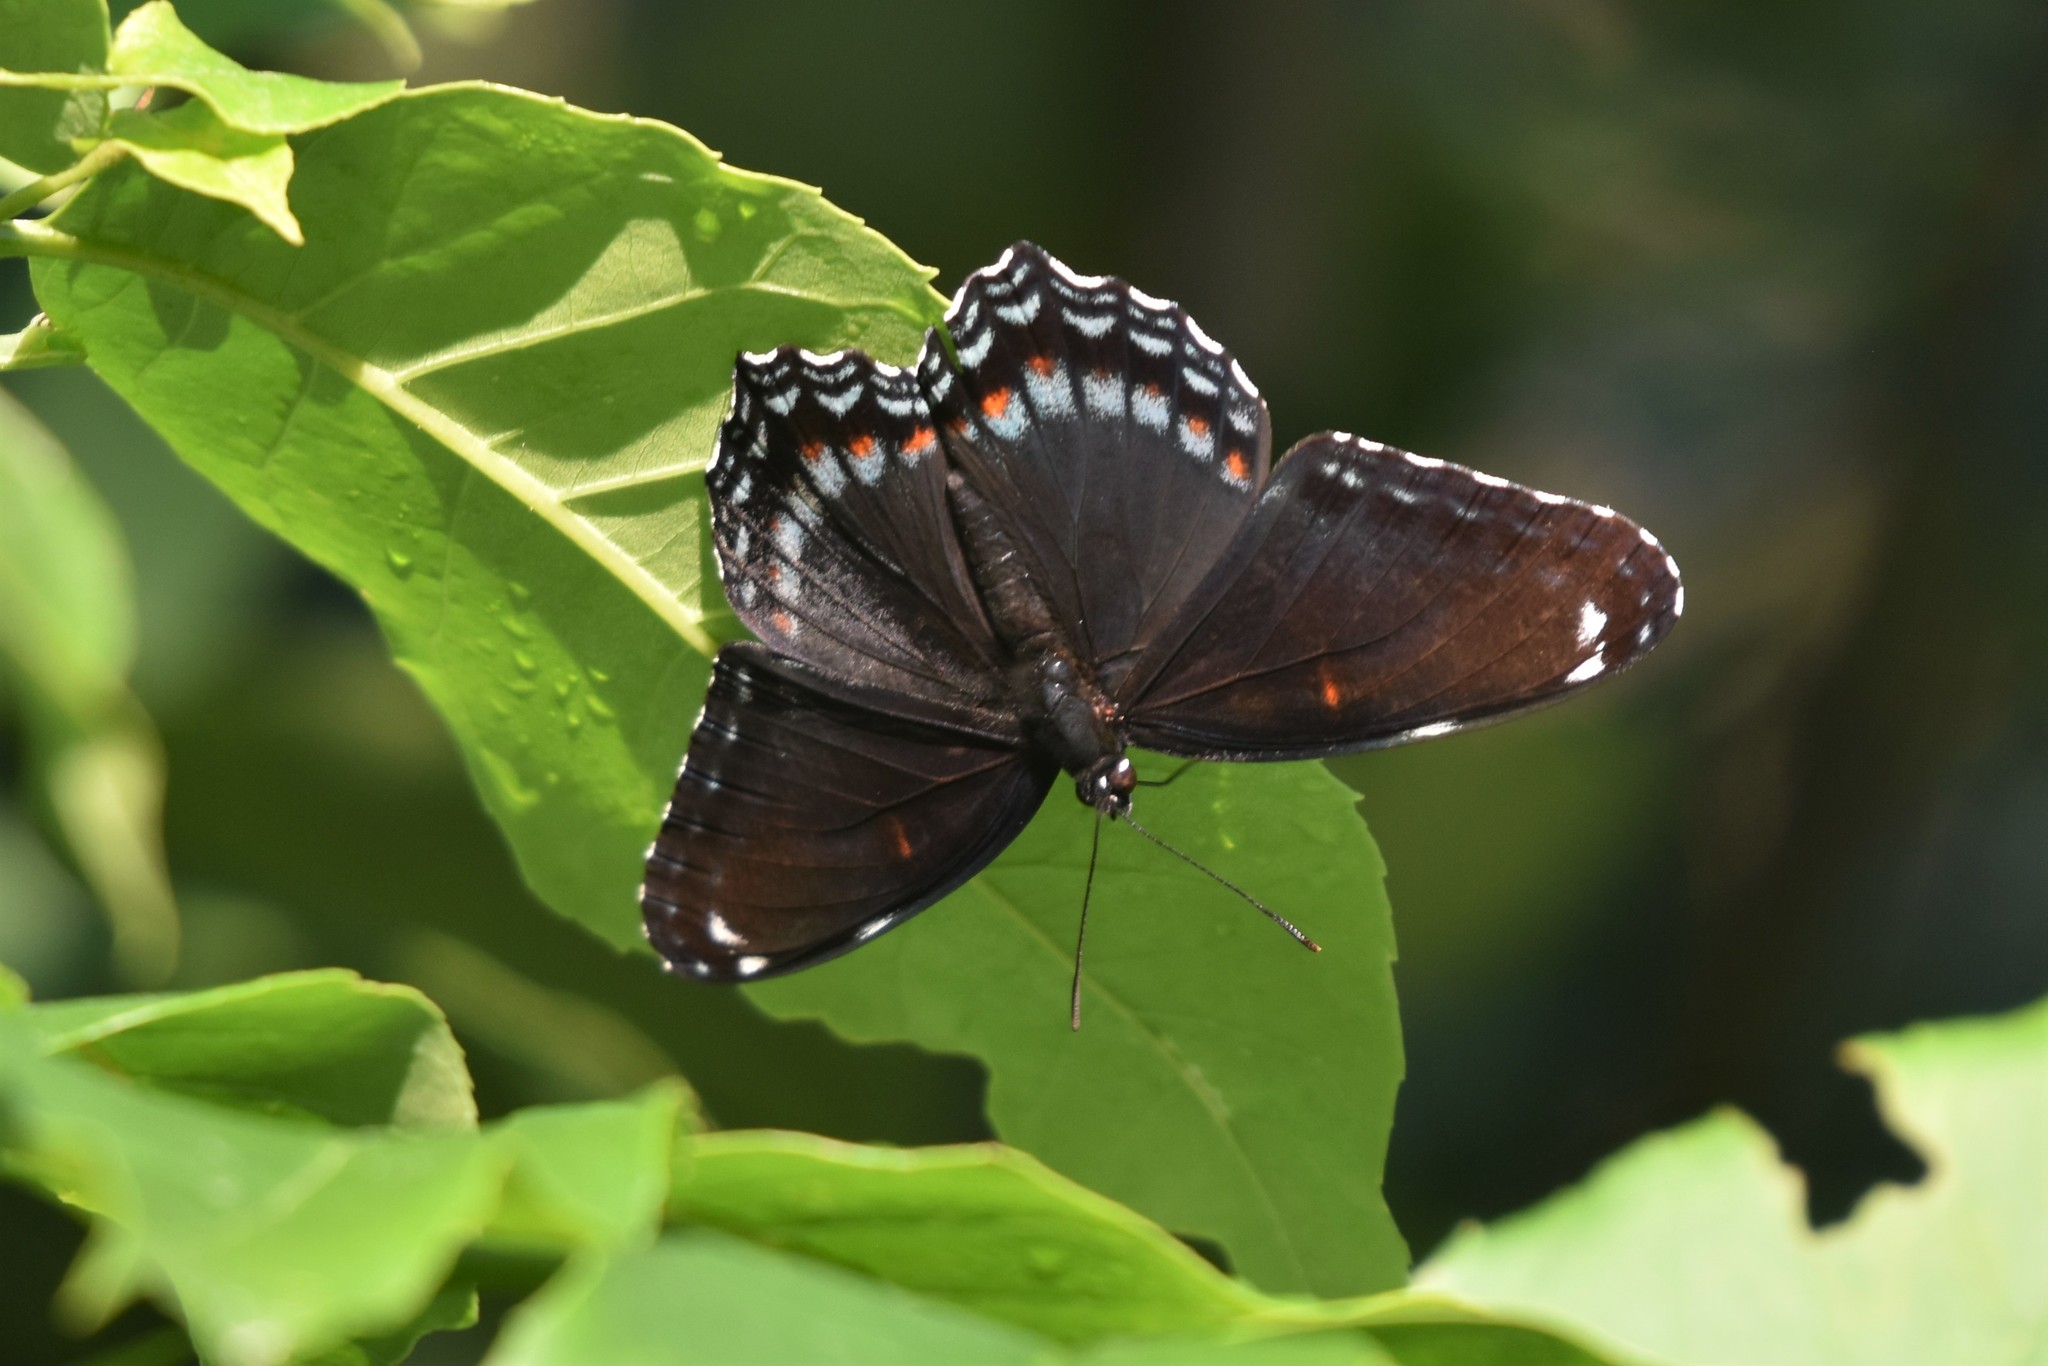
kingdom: Animalia
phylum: Arthropoda
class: Insecta
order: Lepidoptera
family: Nymphalidae
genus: Limenitis
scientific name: Limenitis
